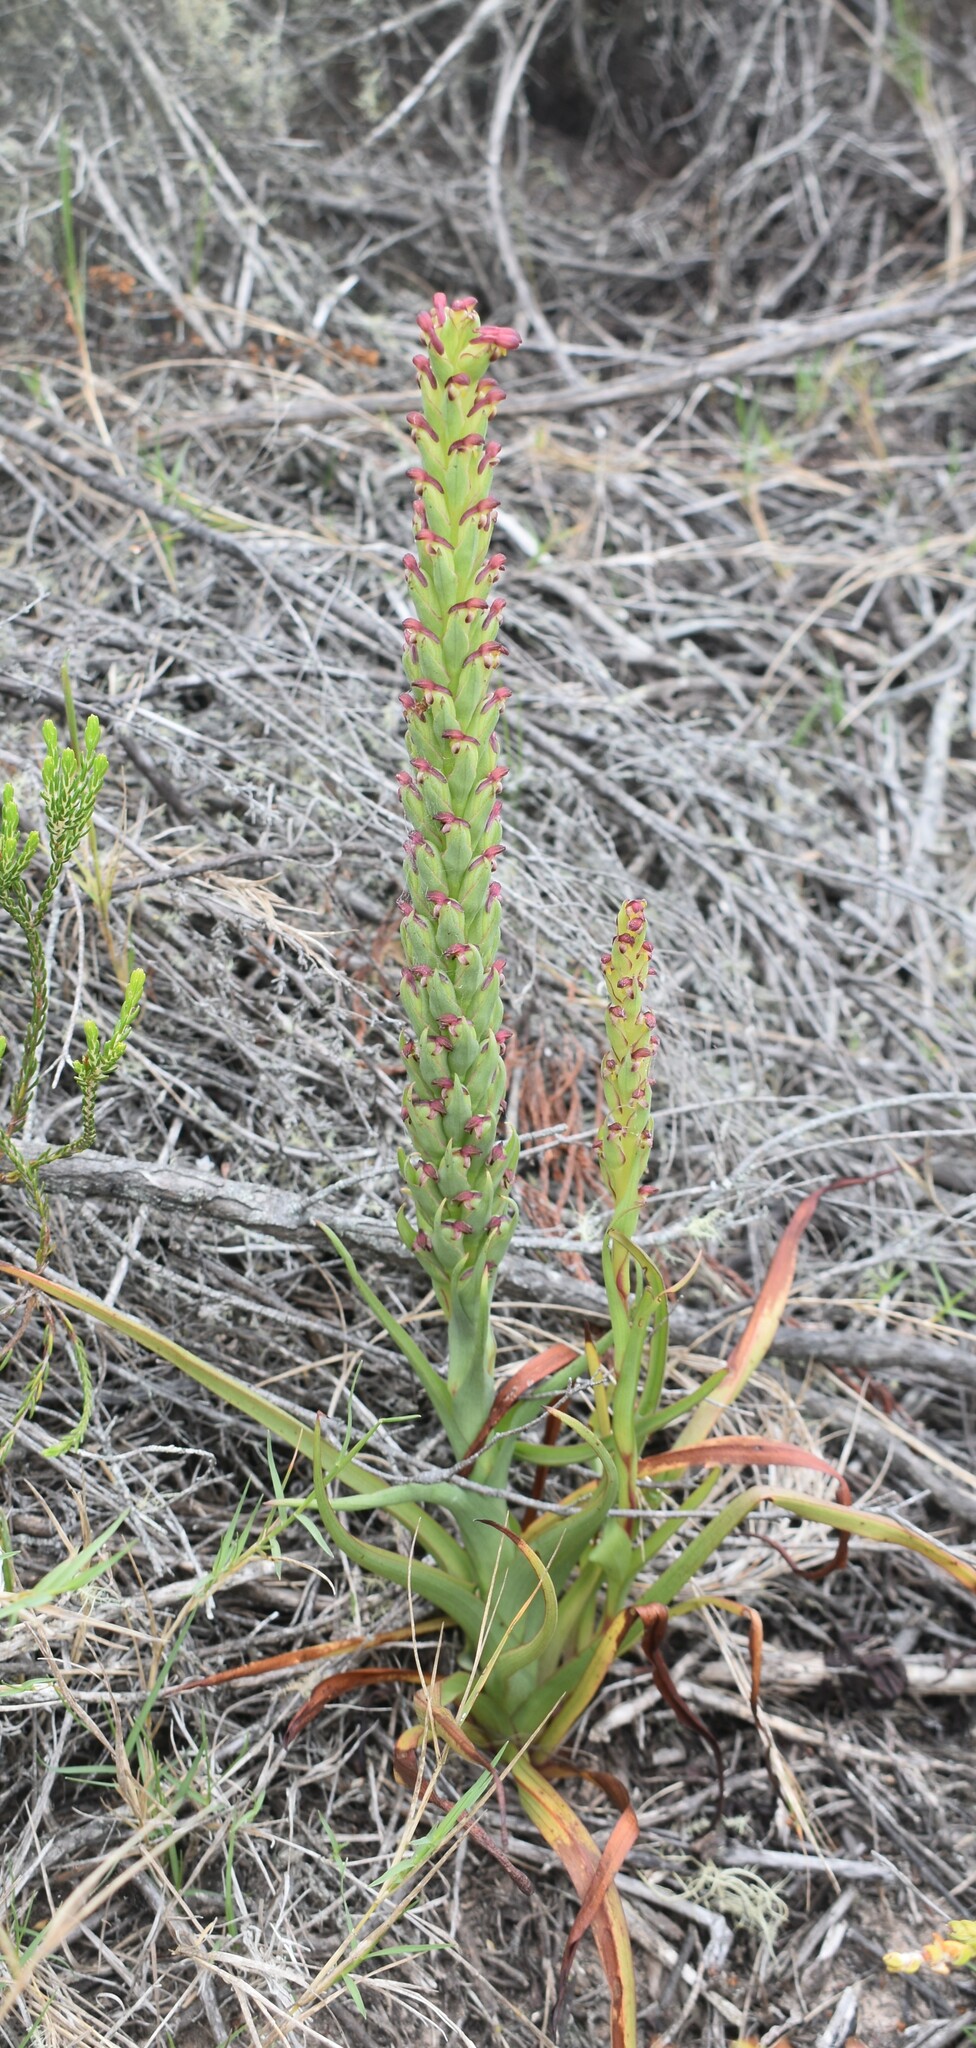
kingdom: Plantae
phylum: Tracheophyta
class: Liliopsida
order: Asparagales
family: Orchidaceae
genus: Disa
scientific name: Disa bracteata
